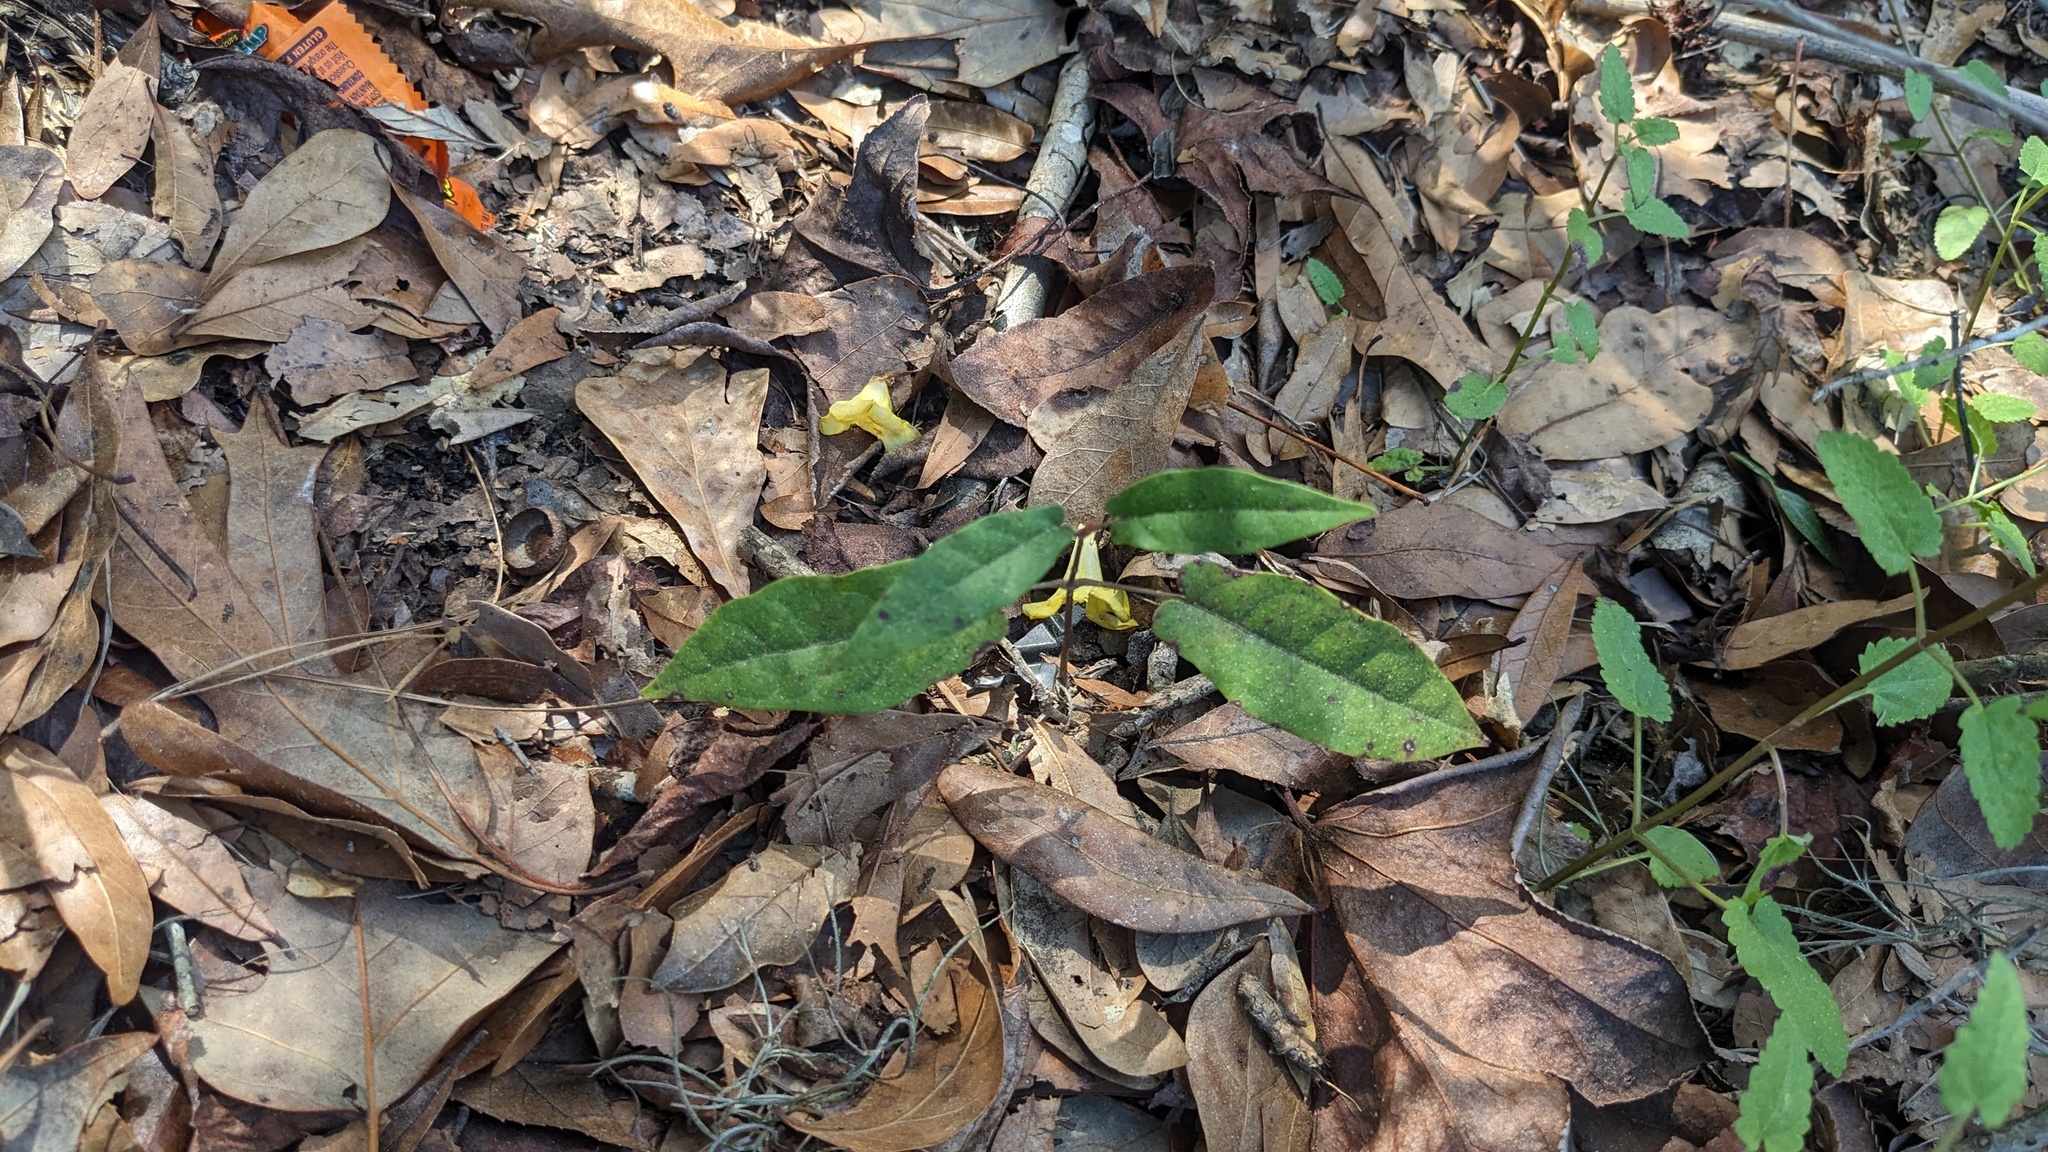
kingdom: Plantae
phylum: Tracheophyta
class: Magnoliopsida
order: Lamiales
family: Bignoniaceae
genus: Bignonia
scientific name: Bignonia capreolata
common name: Crossvine
